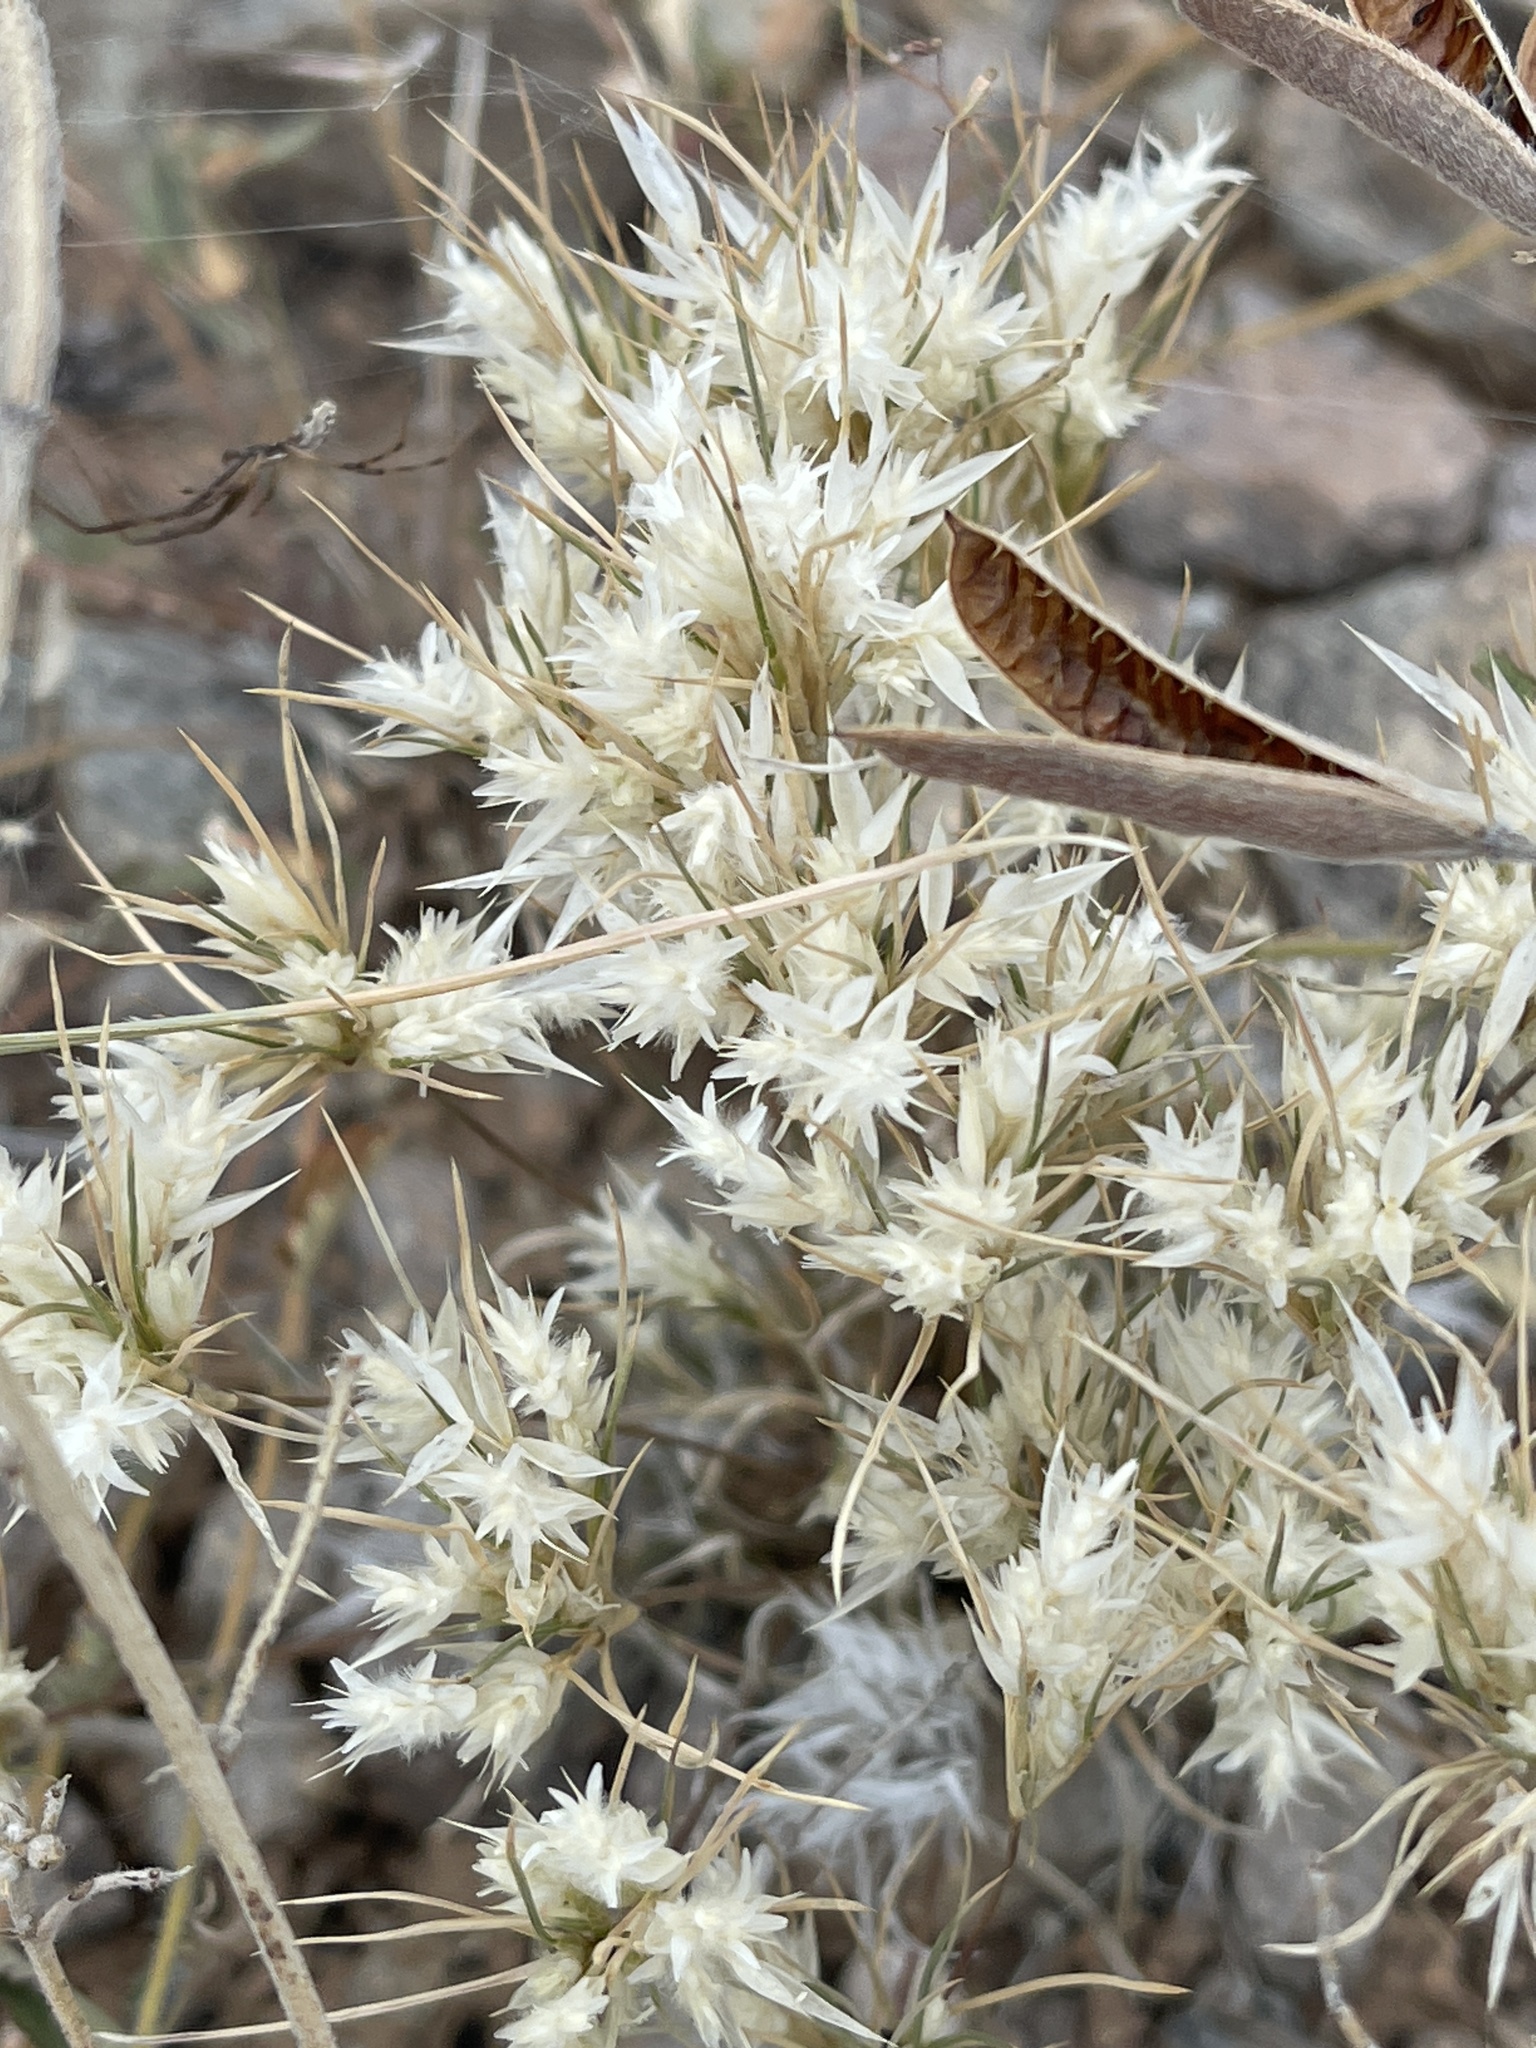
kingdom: Plantae
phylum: Tracheophyta
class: Liliopsida
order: Poales
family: Poaceae
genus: Dasyochloa
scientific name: Dasyochloa pulchella
